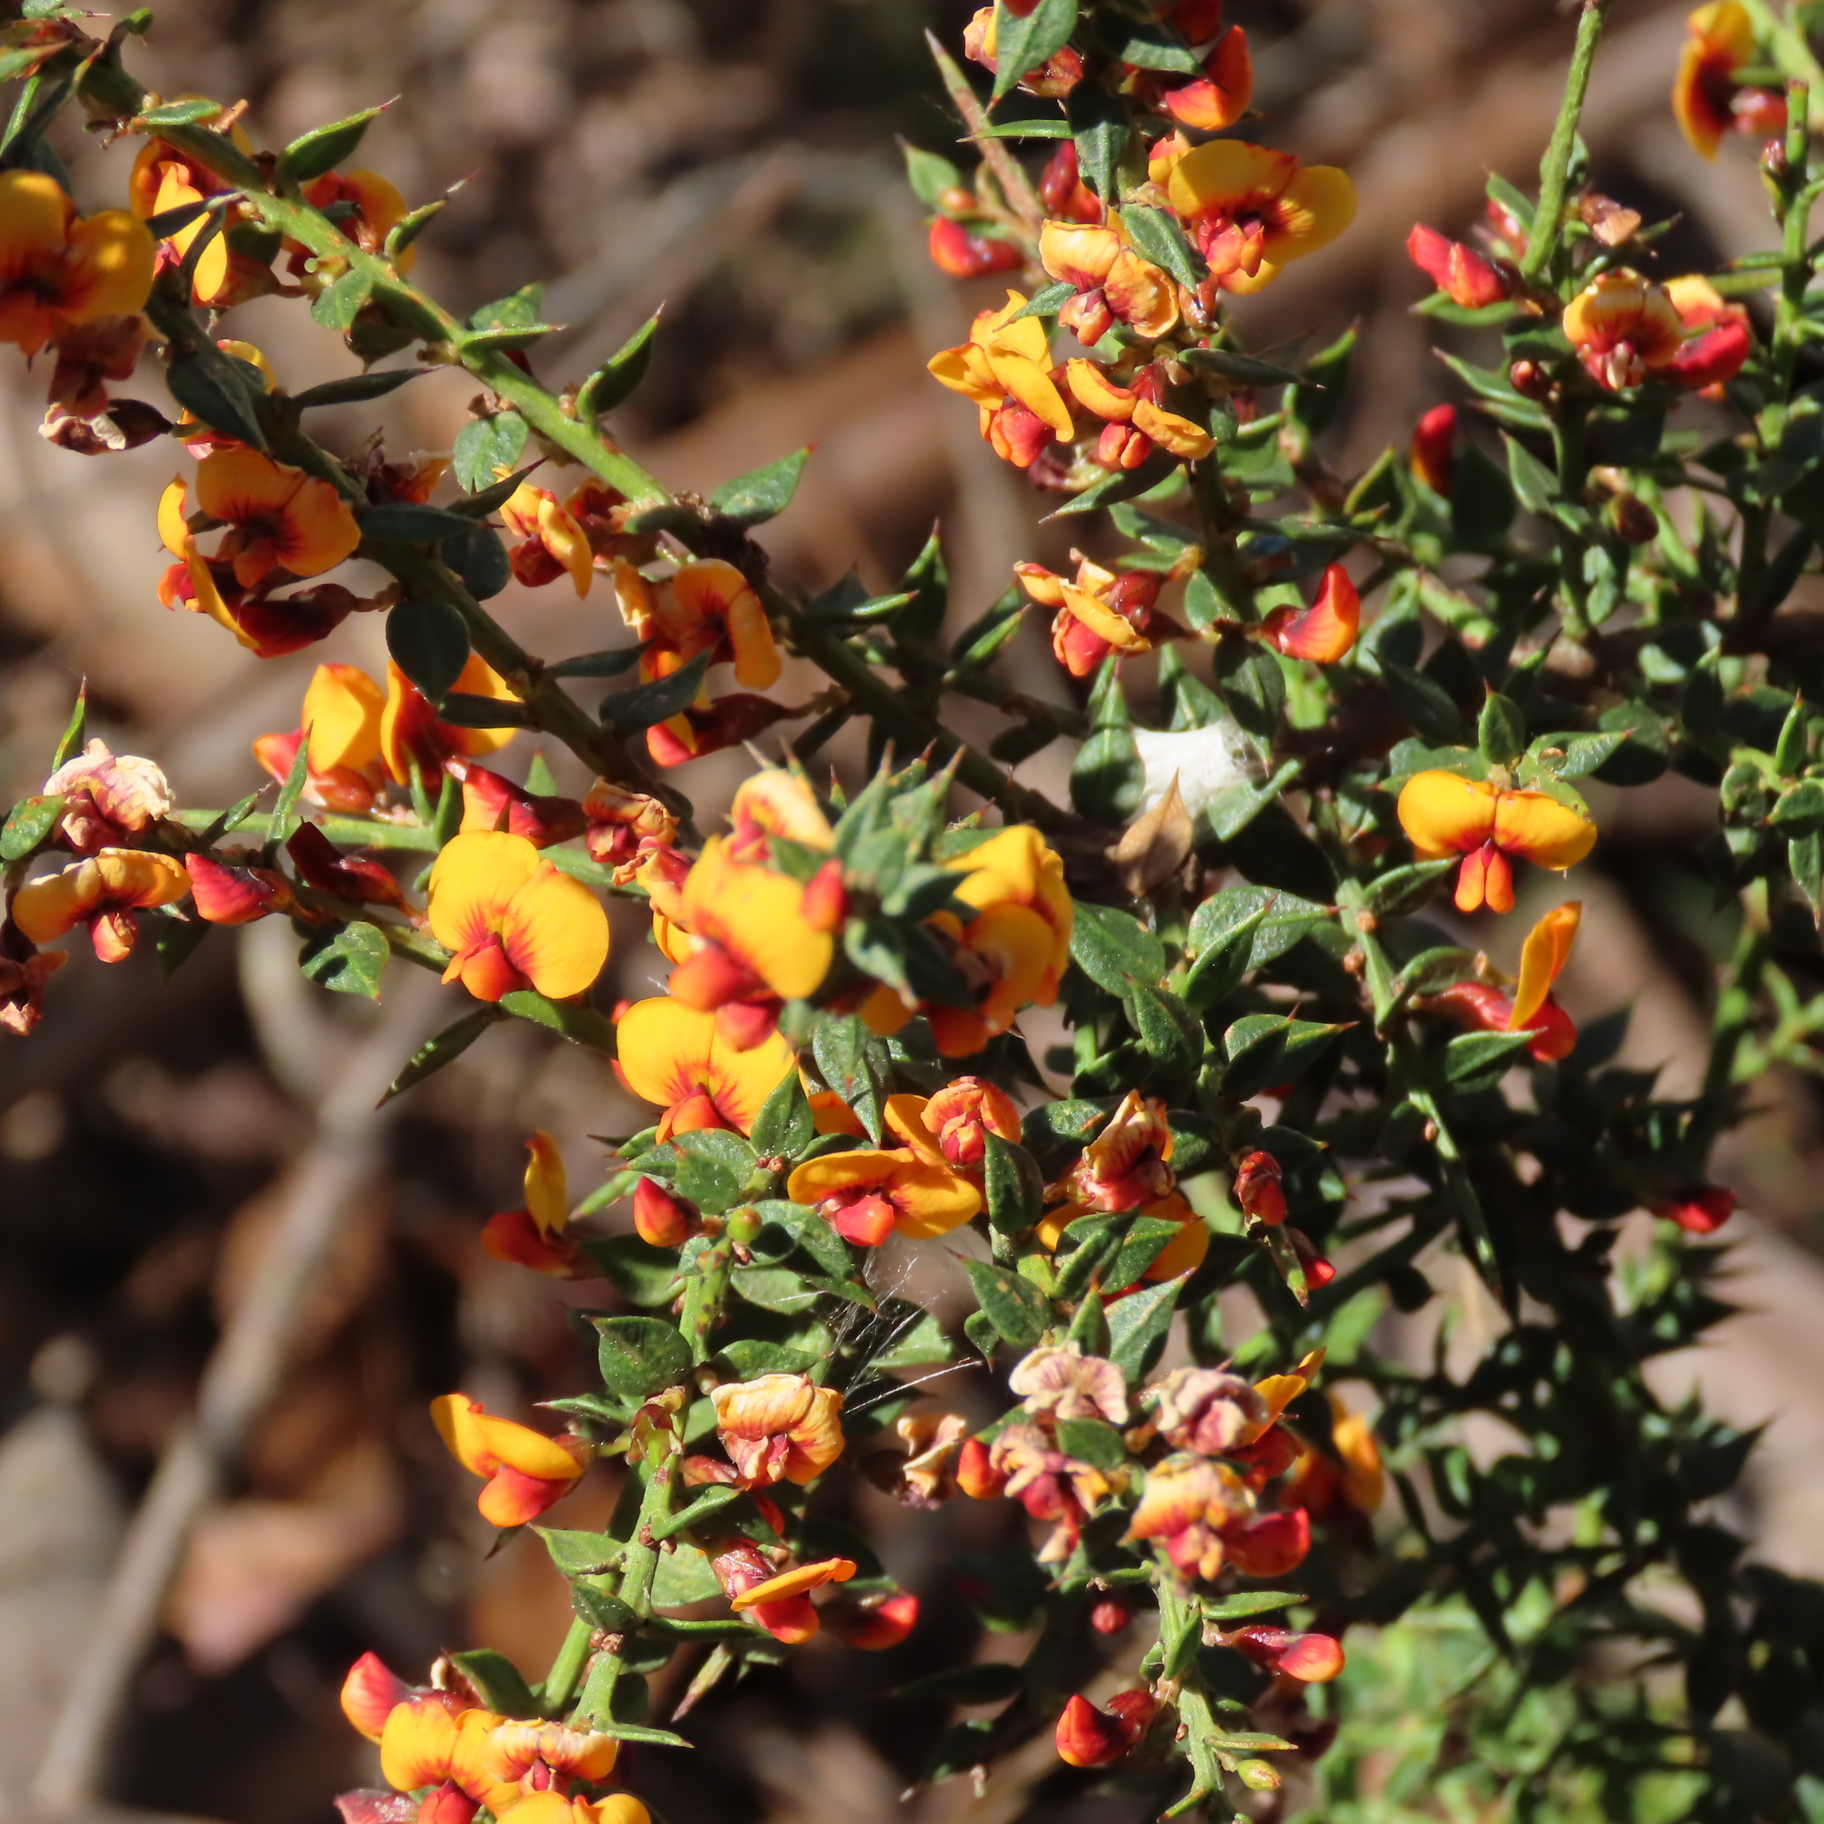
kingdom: Plantae
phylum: Tracheophyta
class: Magnoliopsida
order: Fabales
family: Fabaceae
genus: Daviesia
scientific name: Daviesia ulicifolia
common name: Gorse bitter-pea
